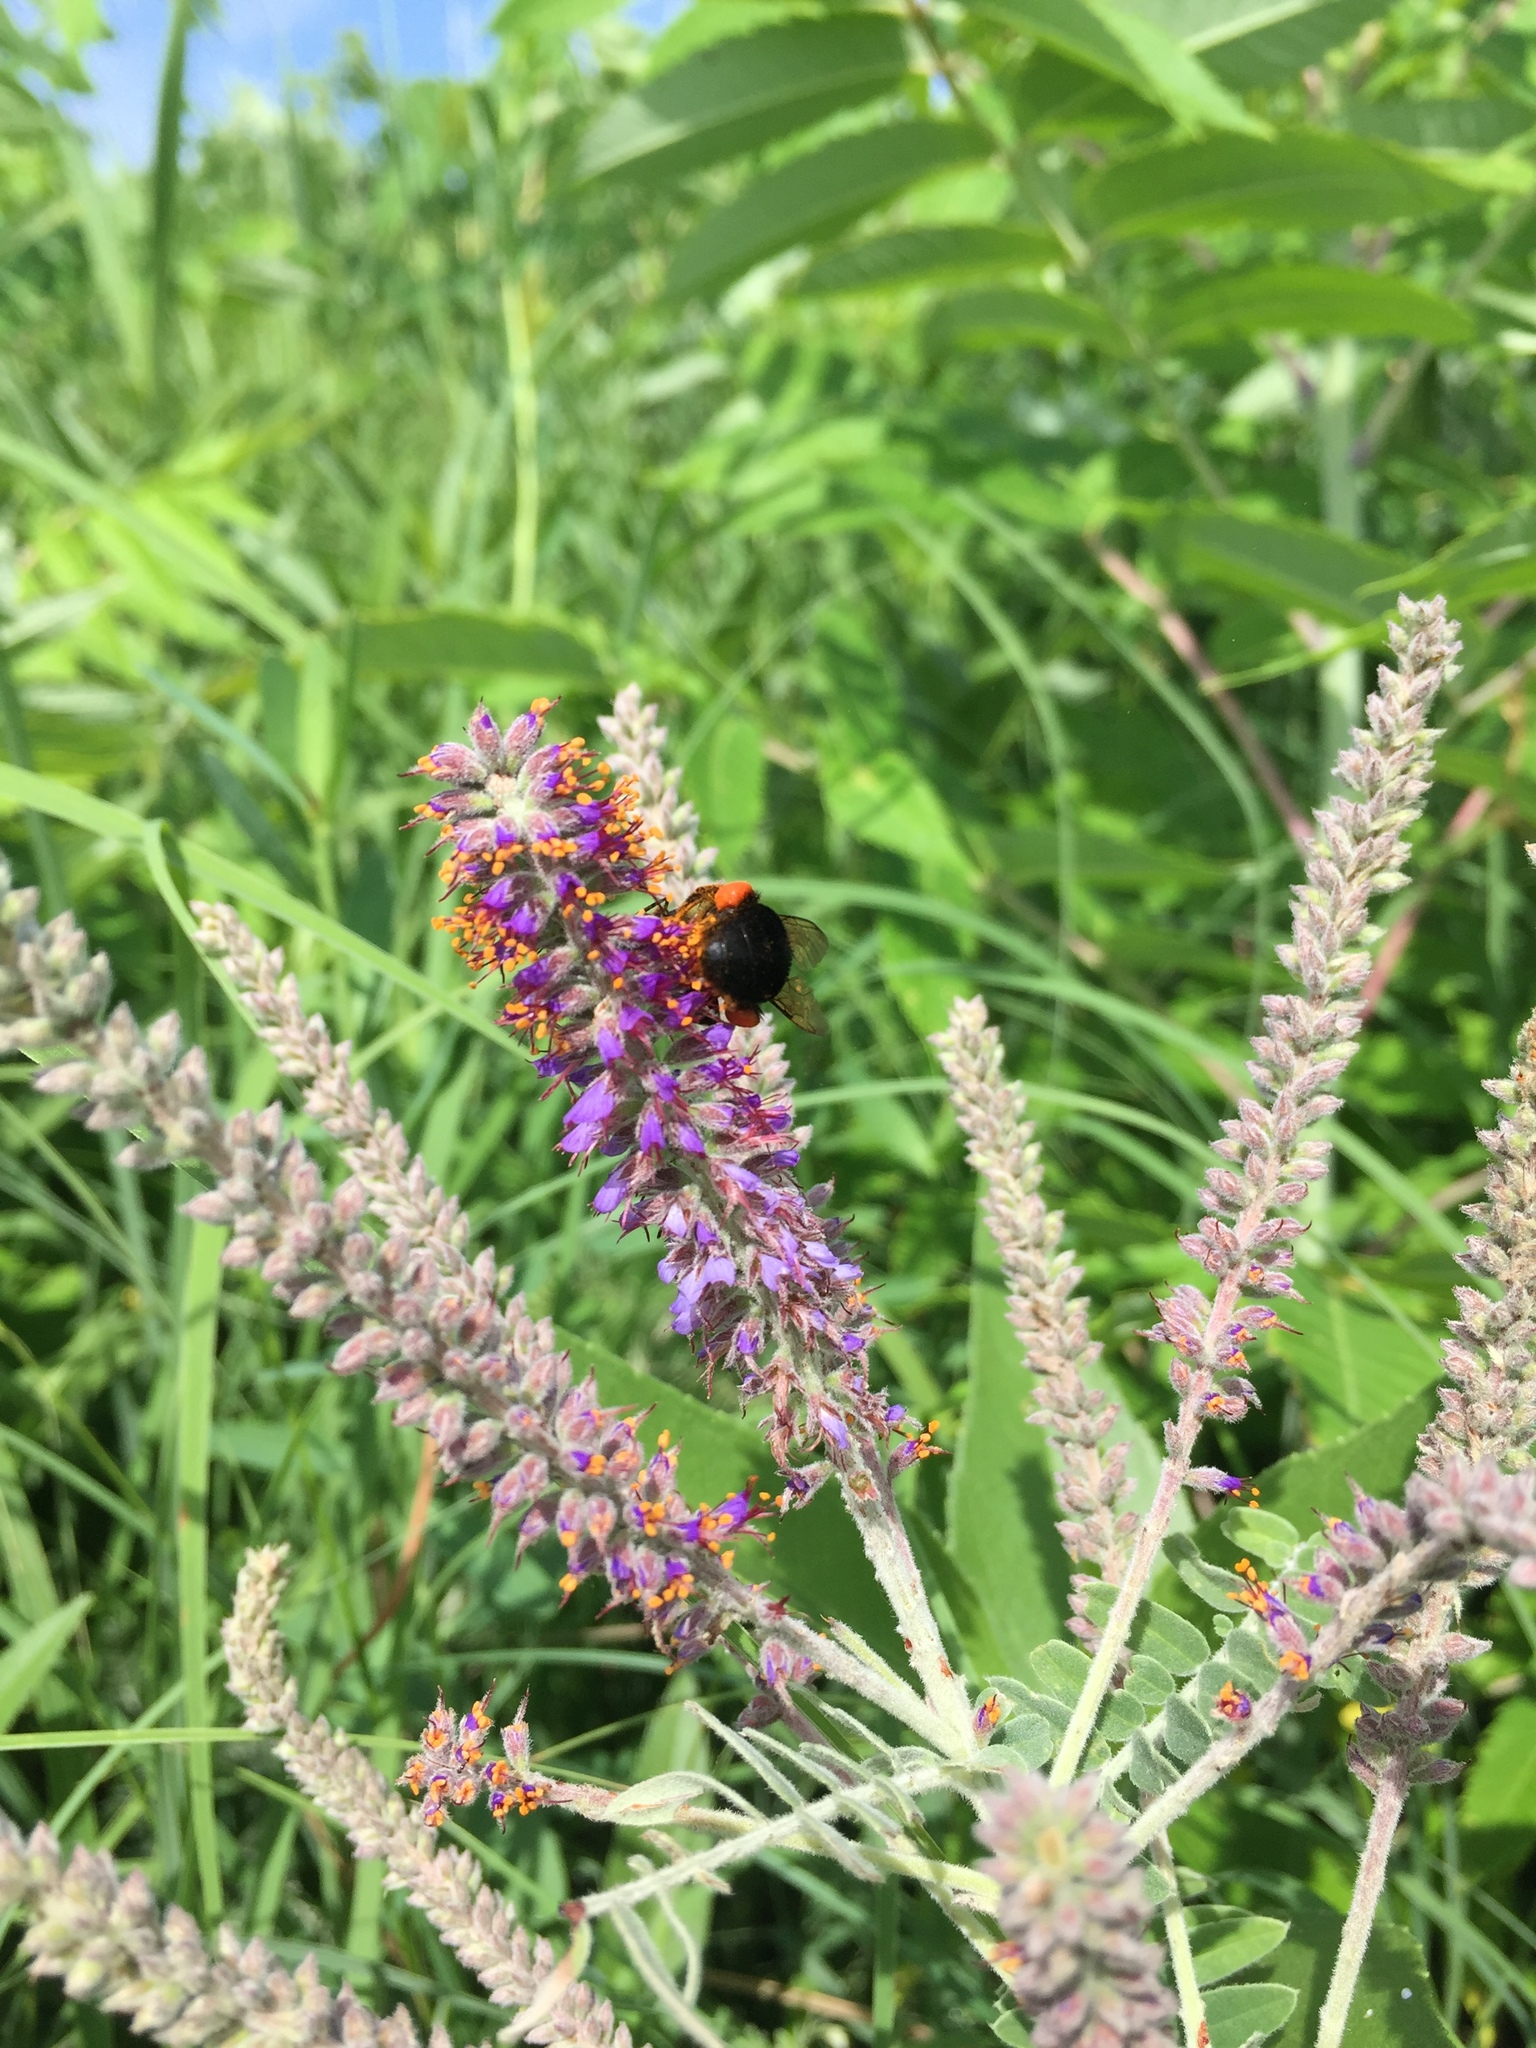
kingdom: Animalia
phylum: Arthropoda
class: Insecta
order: Hymenoptera
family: Apidae
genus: Bombus
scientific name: Bombus
